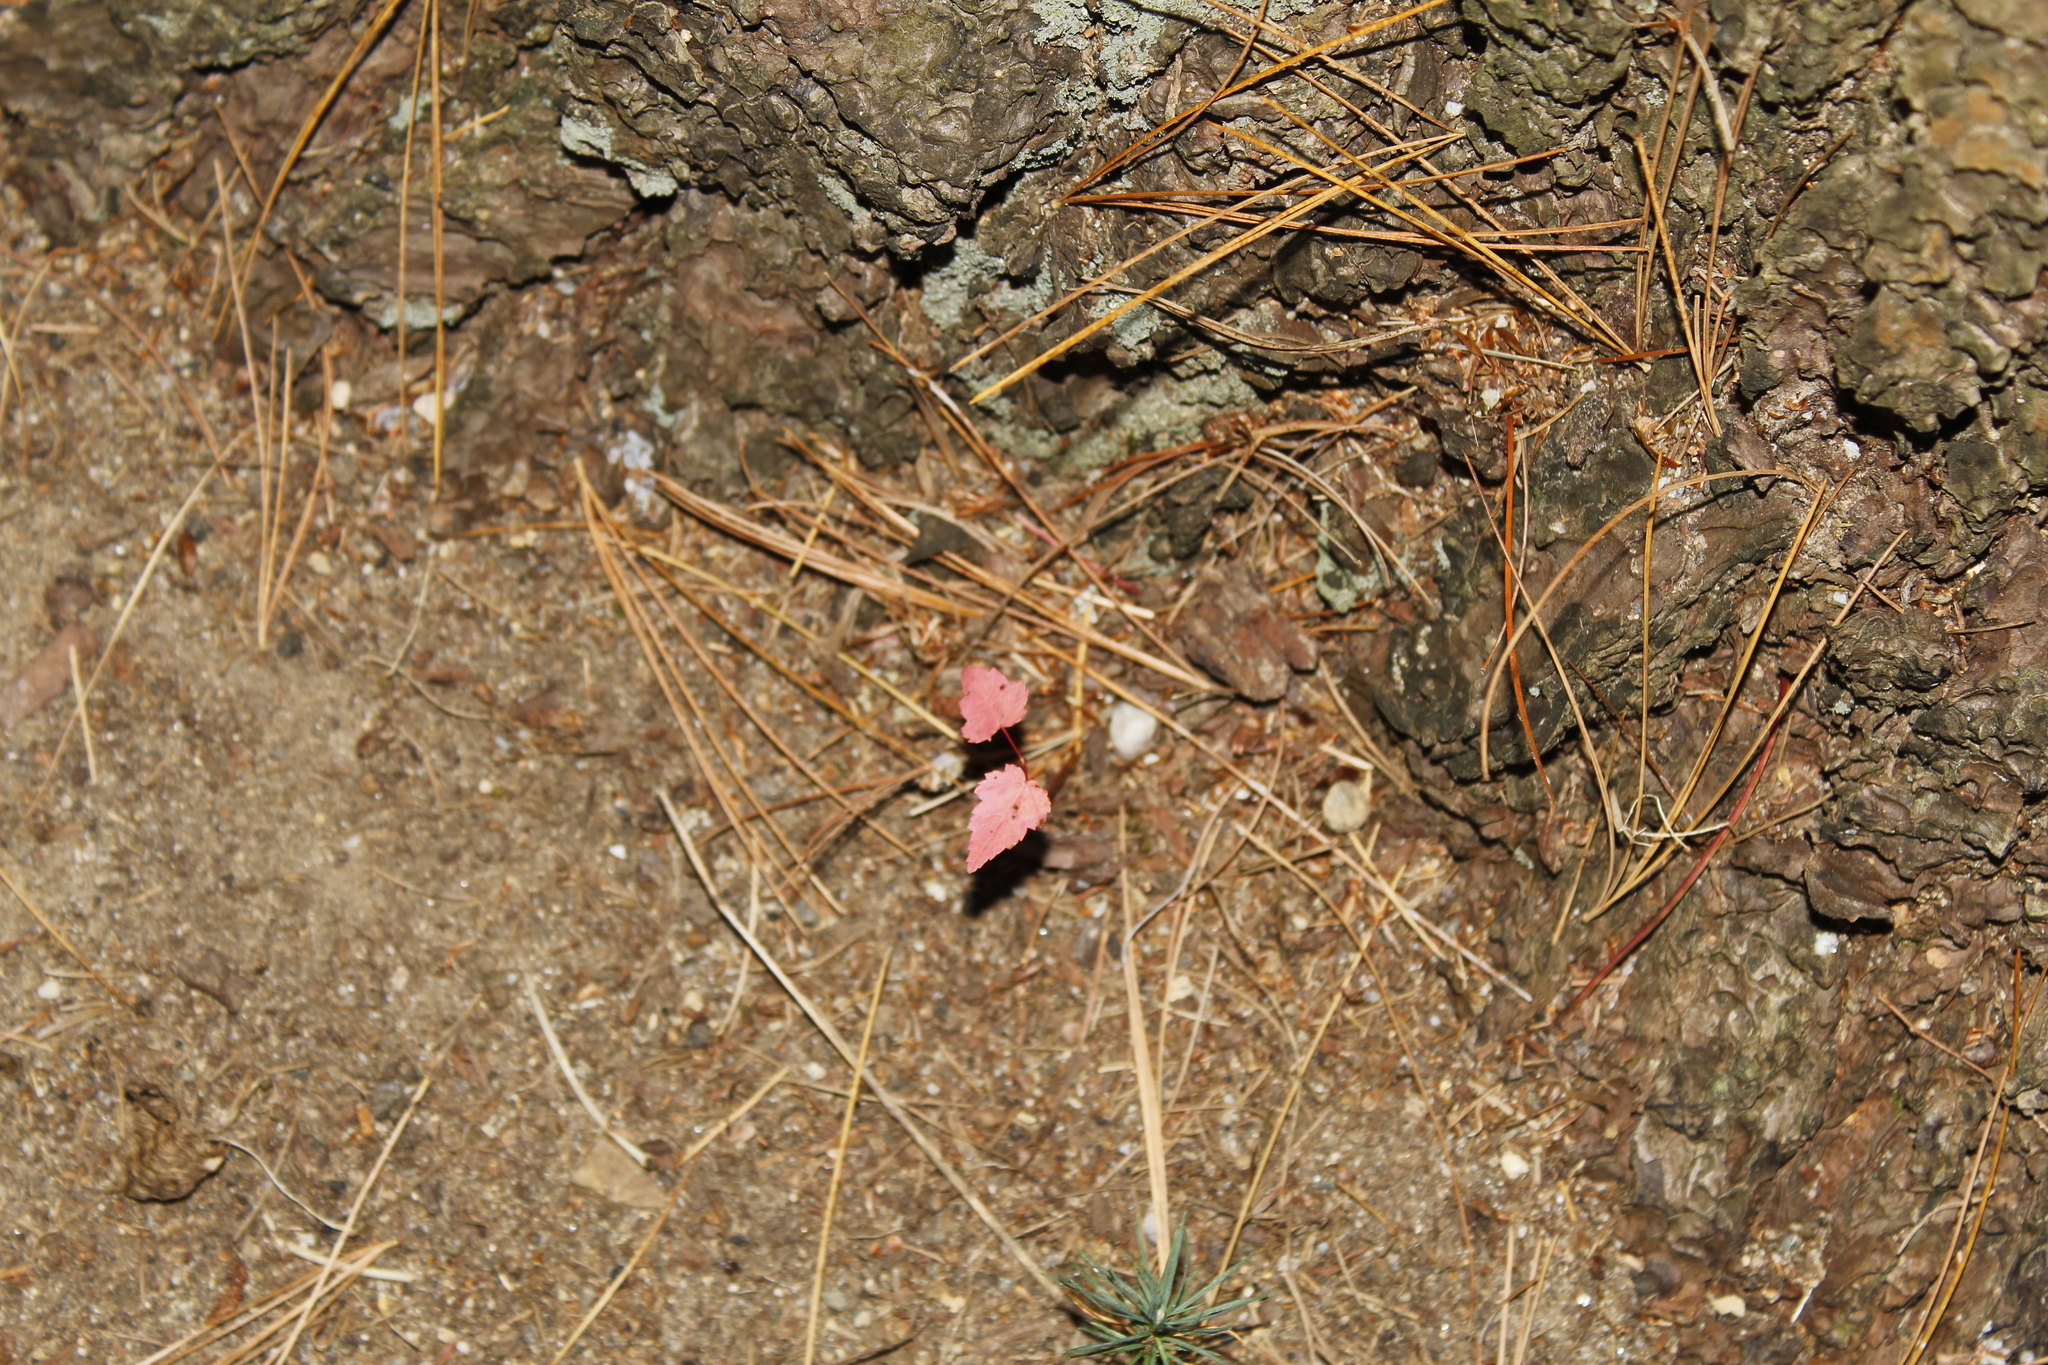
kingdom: Plantae
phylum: Tracheophyta
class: Magnoliopsida
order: Sapindales
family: Sapindaceae
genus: Acer
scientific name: Acer rubrum
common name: Red maple
